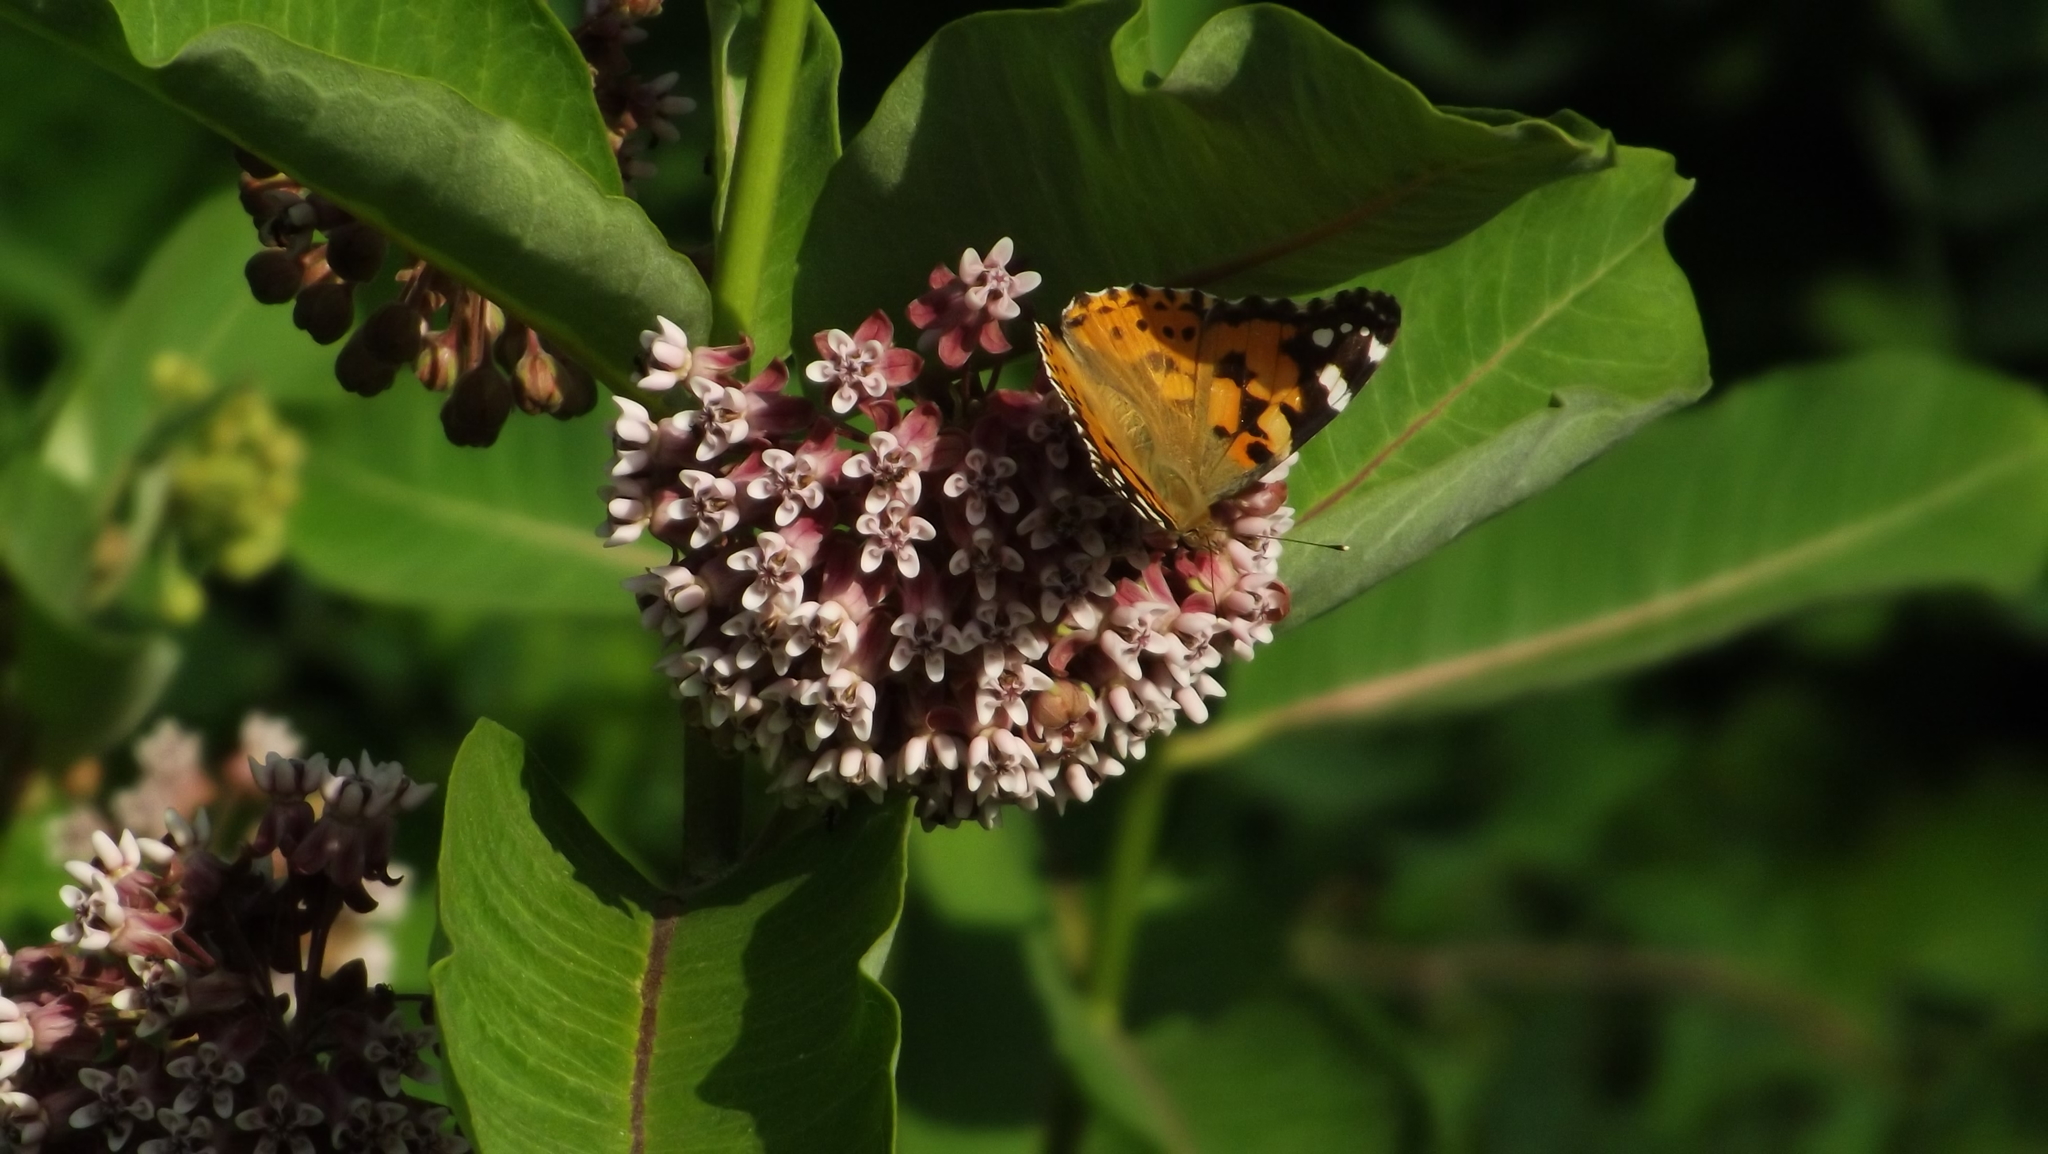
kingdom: Animalia
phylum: Arthropoda
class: Insecta
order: Lepidoptera
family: Nymphalidae
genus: Vanessa
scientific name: Vanessa cardui
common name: Painted lady
